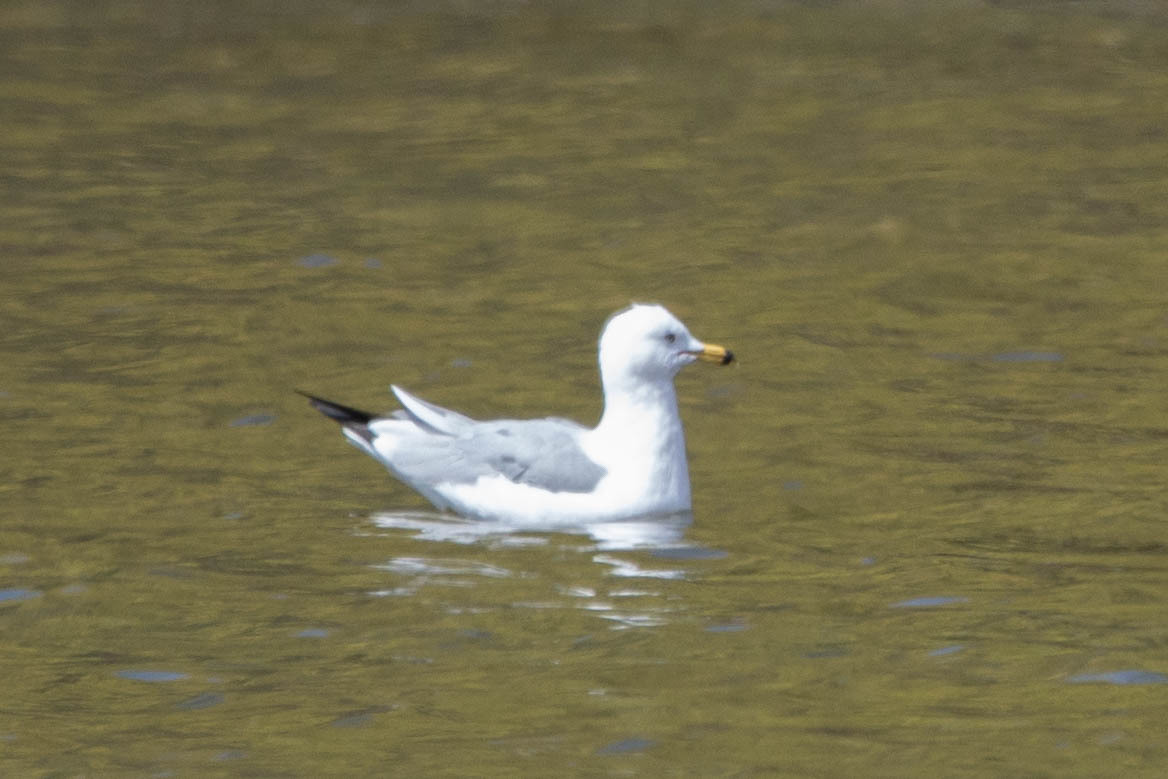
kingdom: Animalia
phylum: Chordata
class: Aves
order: Charadriiformes
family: Laridae
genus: Larus
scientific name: Larus delawarensis
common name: Ring-billed gull
